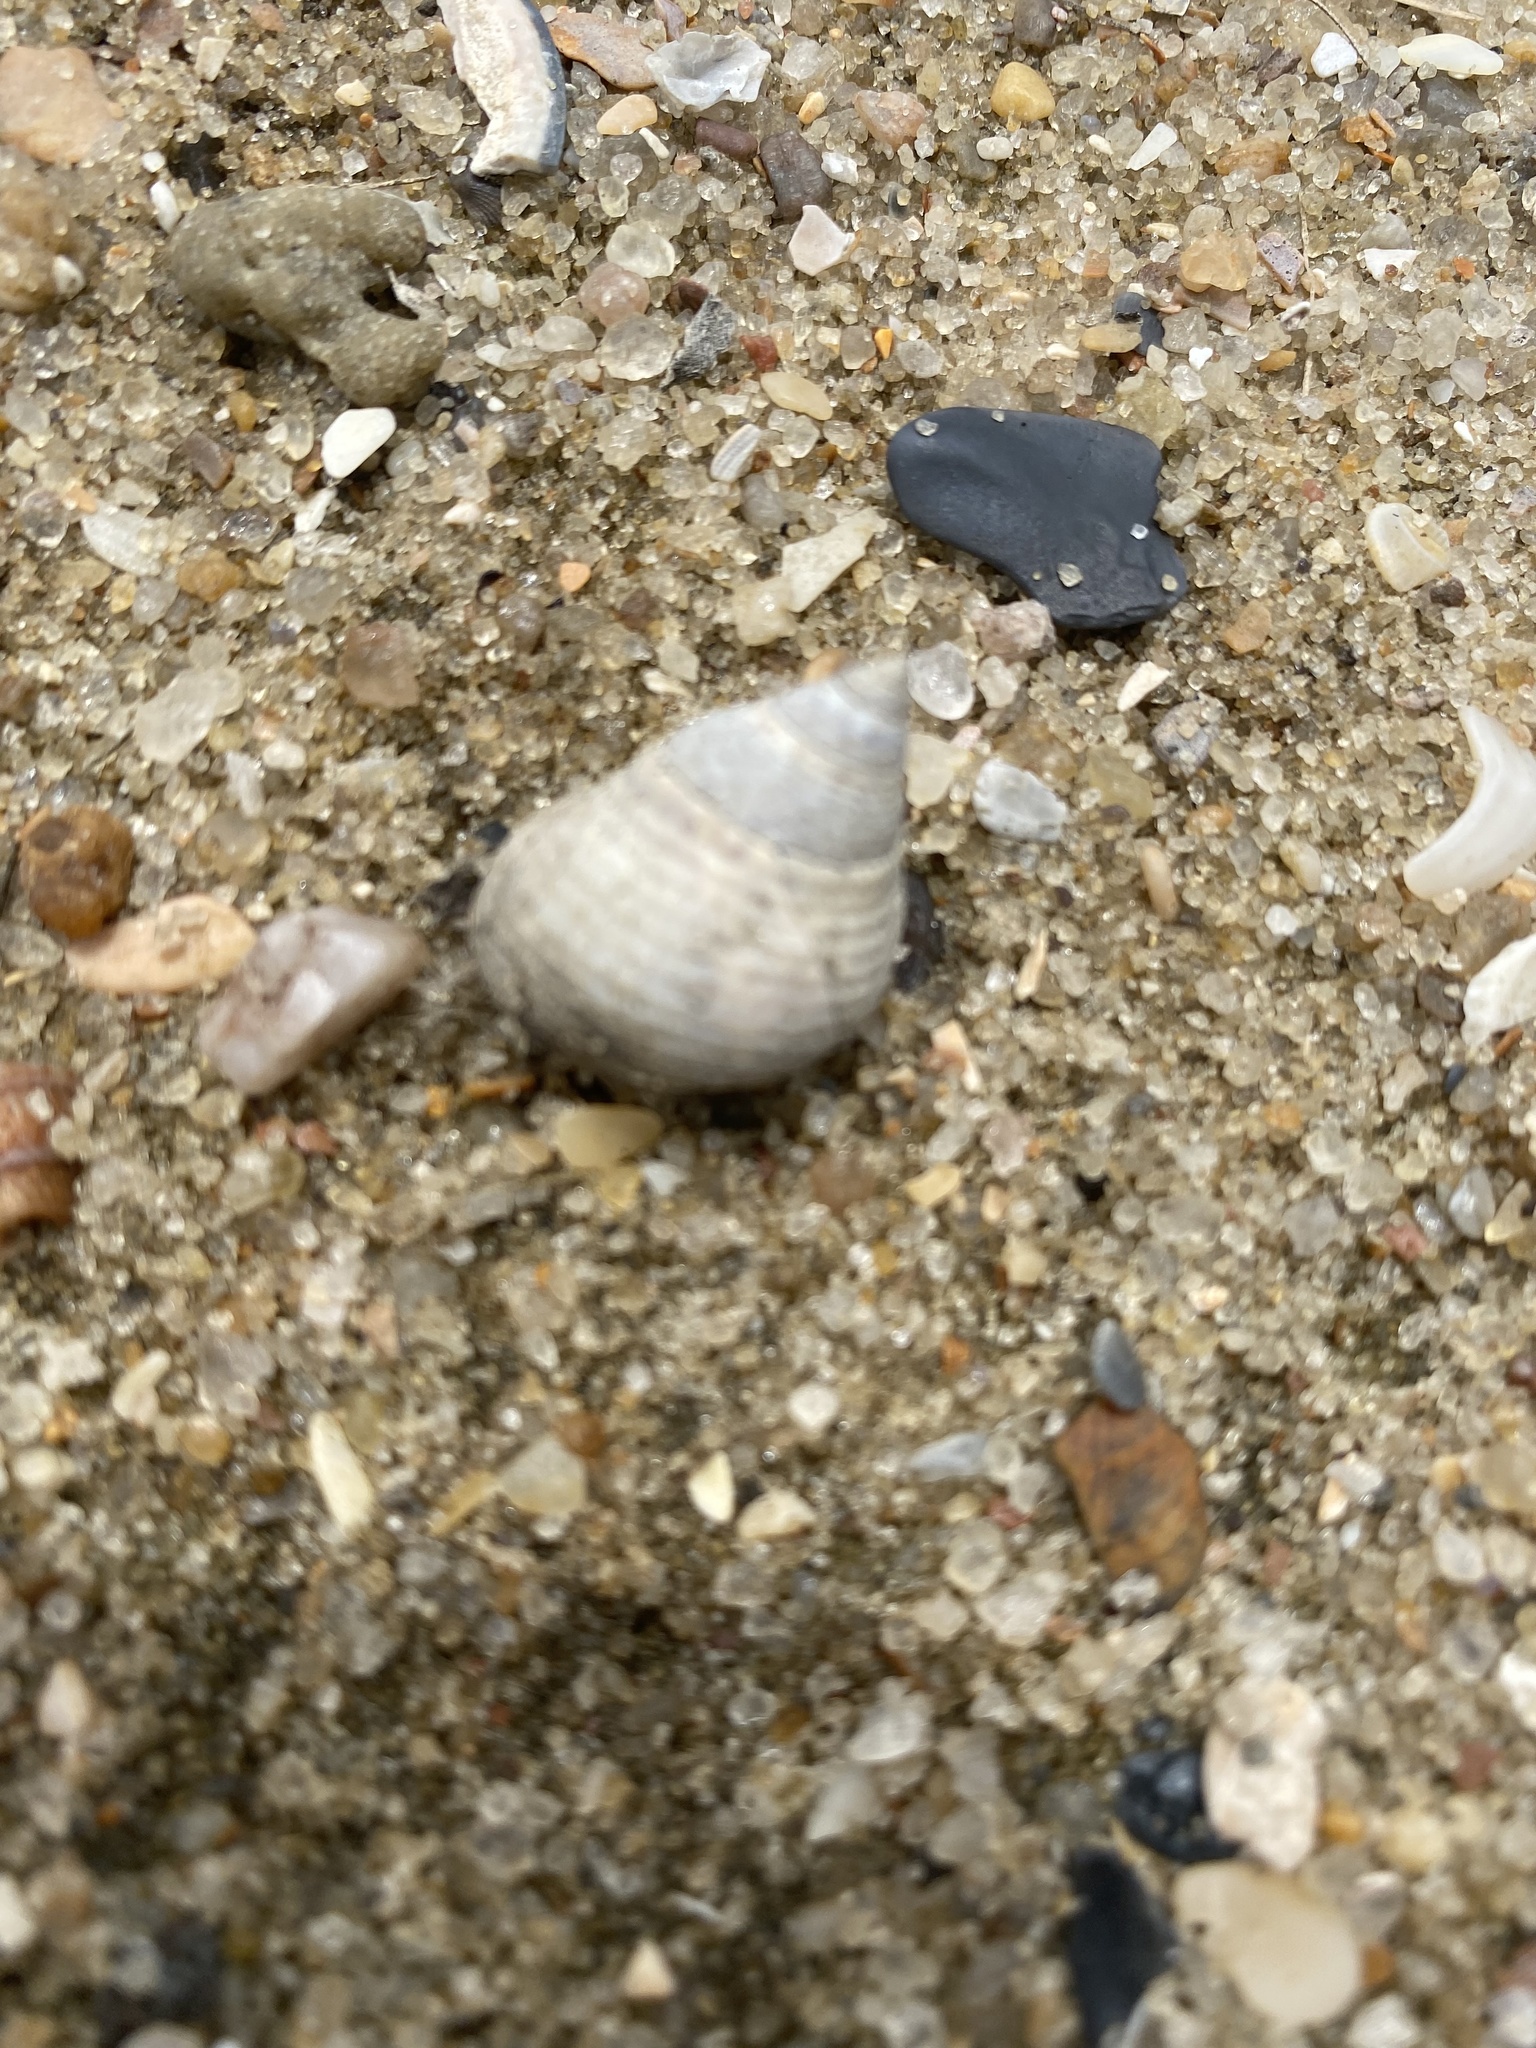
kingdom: Animalia
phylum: Mollusca
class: Gastropoda
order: Littorinimorpha
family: Littorinidae
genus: Littoraria
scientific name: Littoraria irrorata
